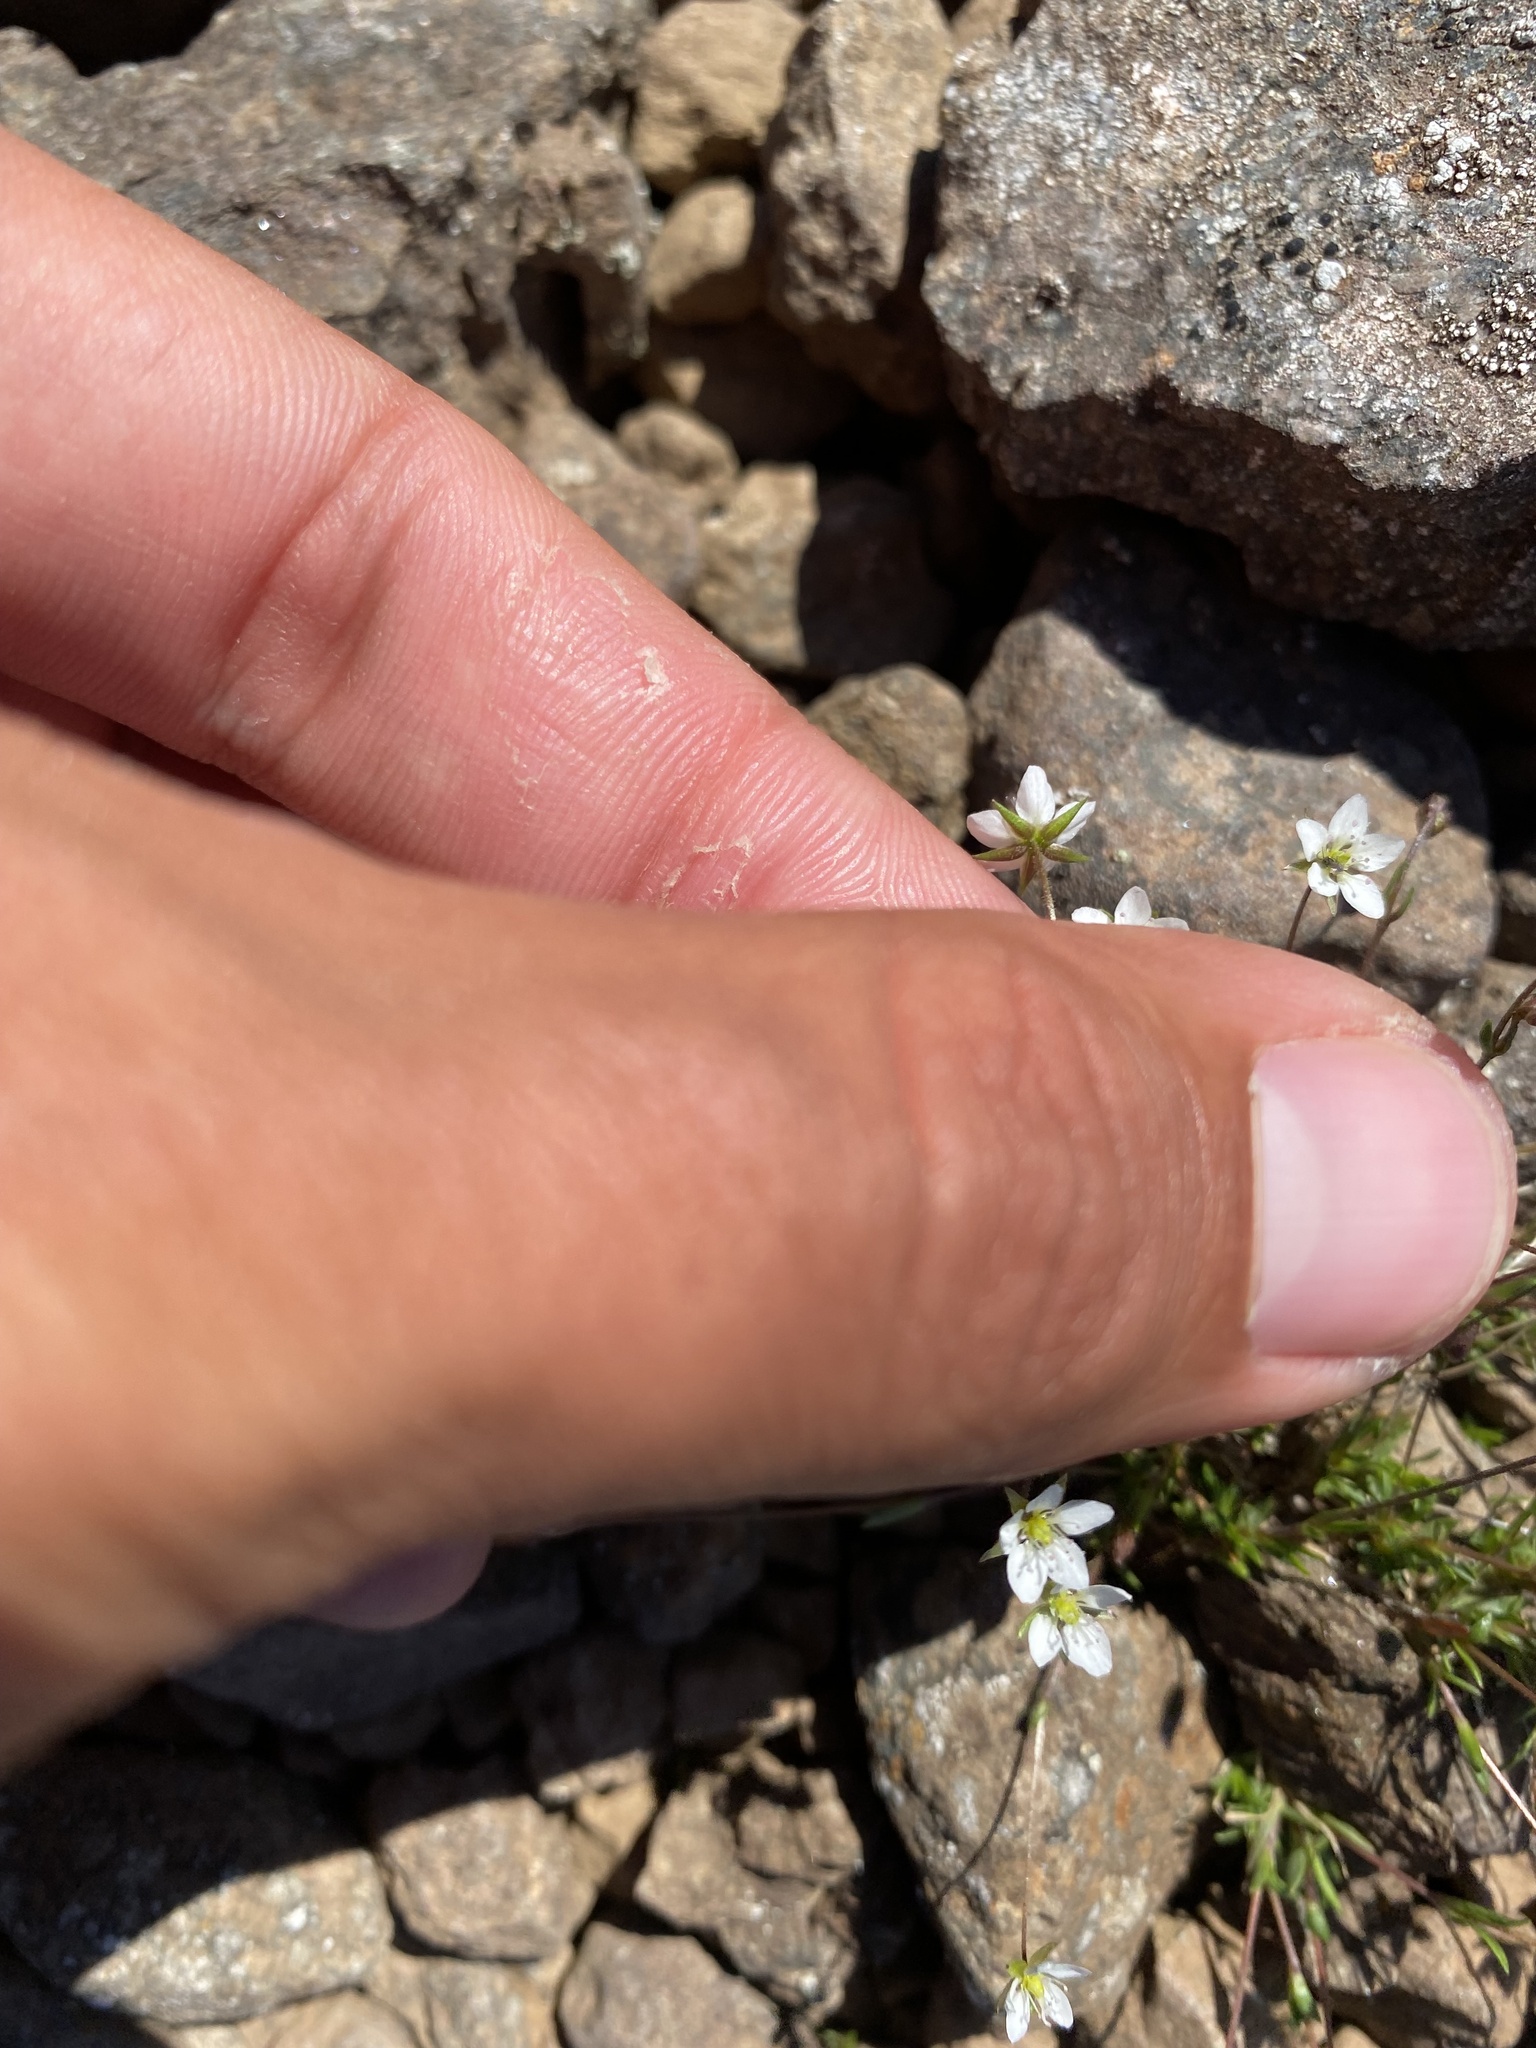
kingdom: Plantae
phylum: Tracheophyta
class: Magnoliopsida
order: Caryophyllales
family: Caryophyllaceae
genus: Sabulina
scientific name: Sabulina rubella
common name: Beautiful sandwort
